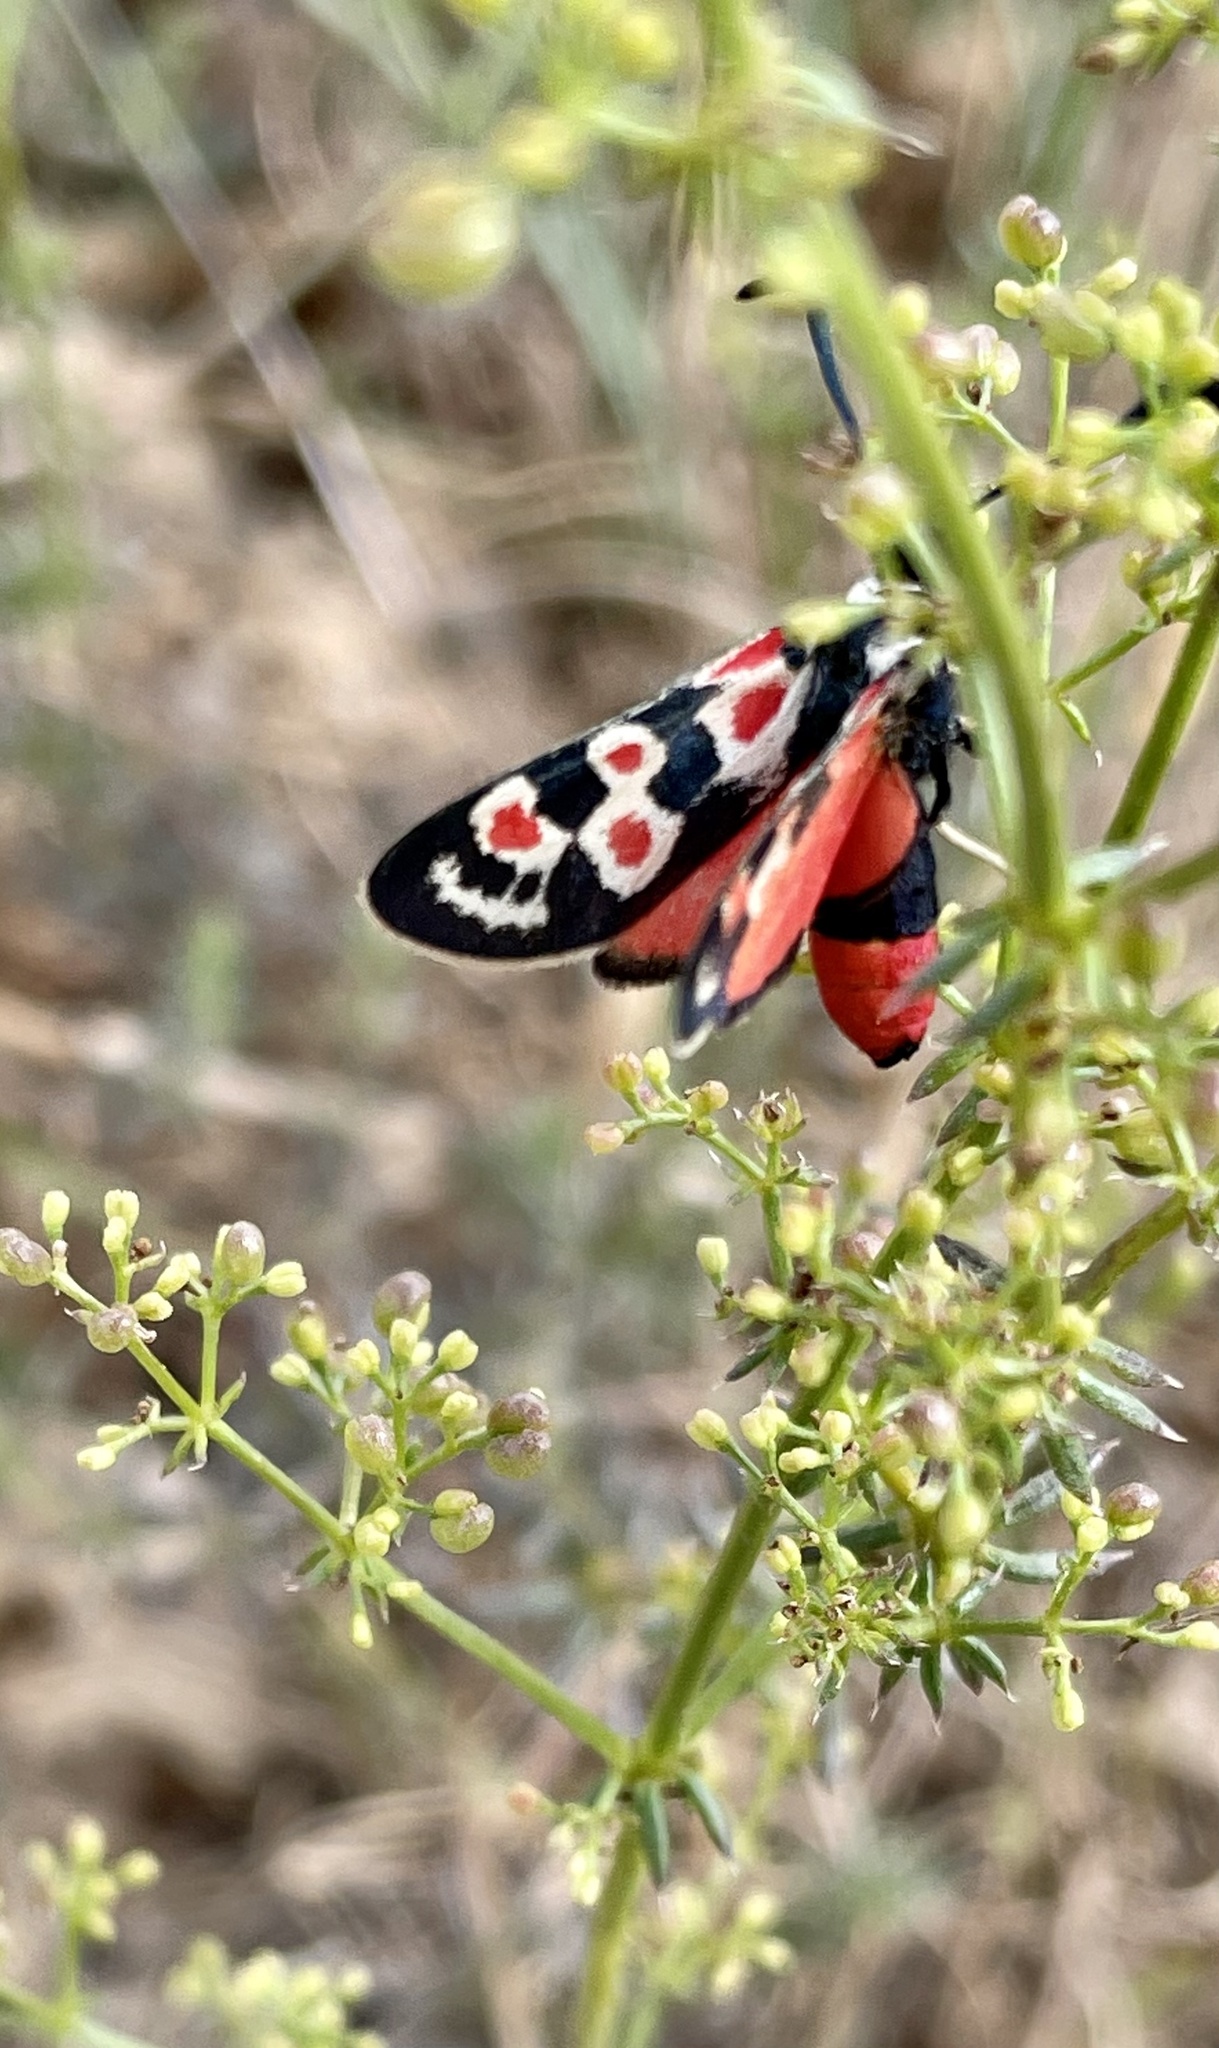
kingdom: Animalia
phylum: Arthropoda
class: Insecta
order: Lepidoptera
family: Zygaenidae
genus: Zygaena
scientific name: Zygaena occitanica
